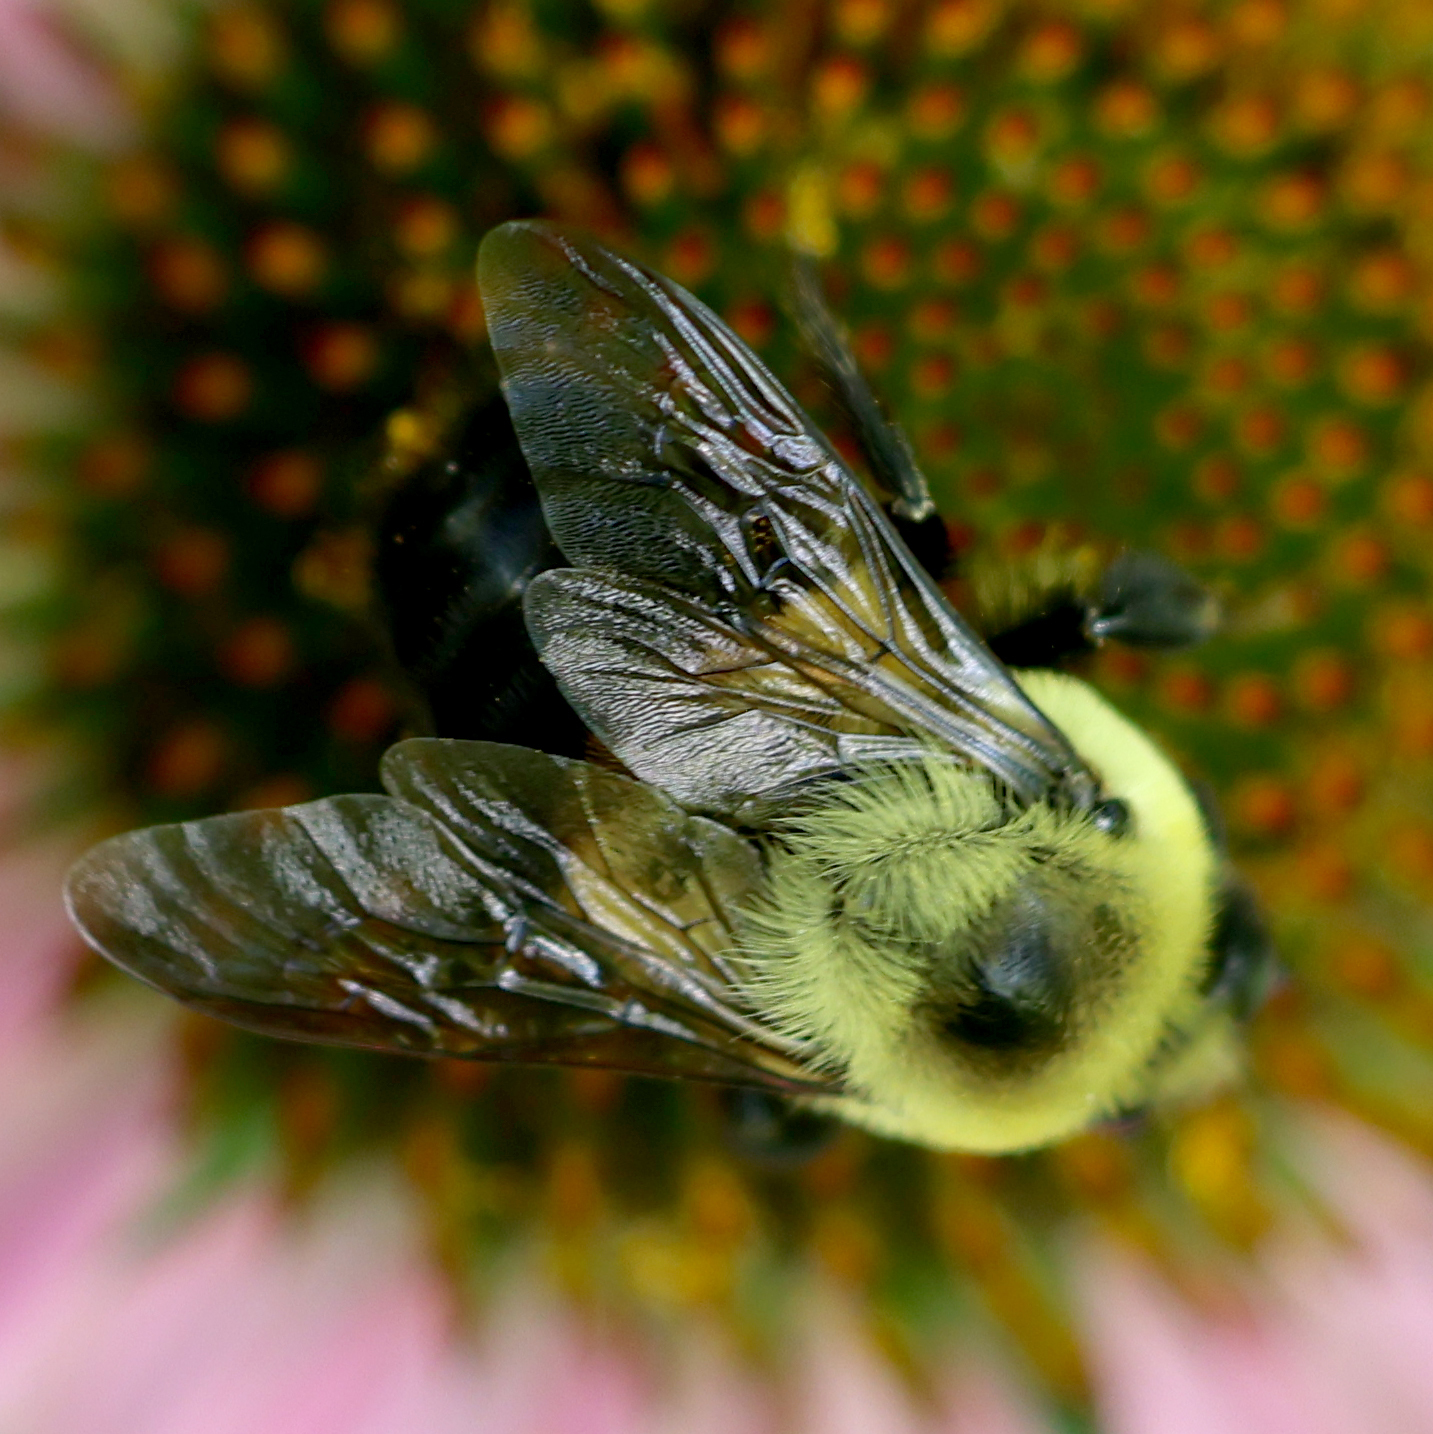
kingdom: Animalia
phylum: Arthropoda
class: Insecta
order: Hymenoptera
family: Apidae
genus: Bombus
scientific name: Bombus griseocollis
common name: Brown-belted bumble bee
